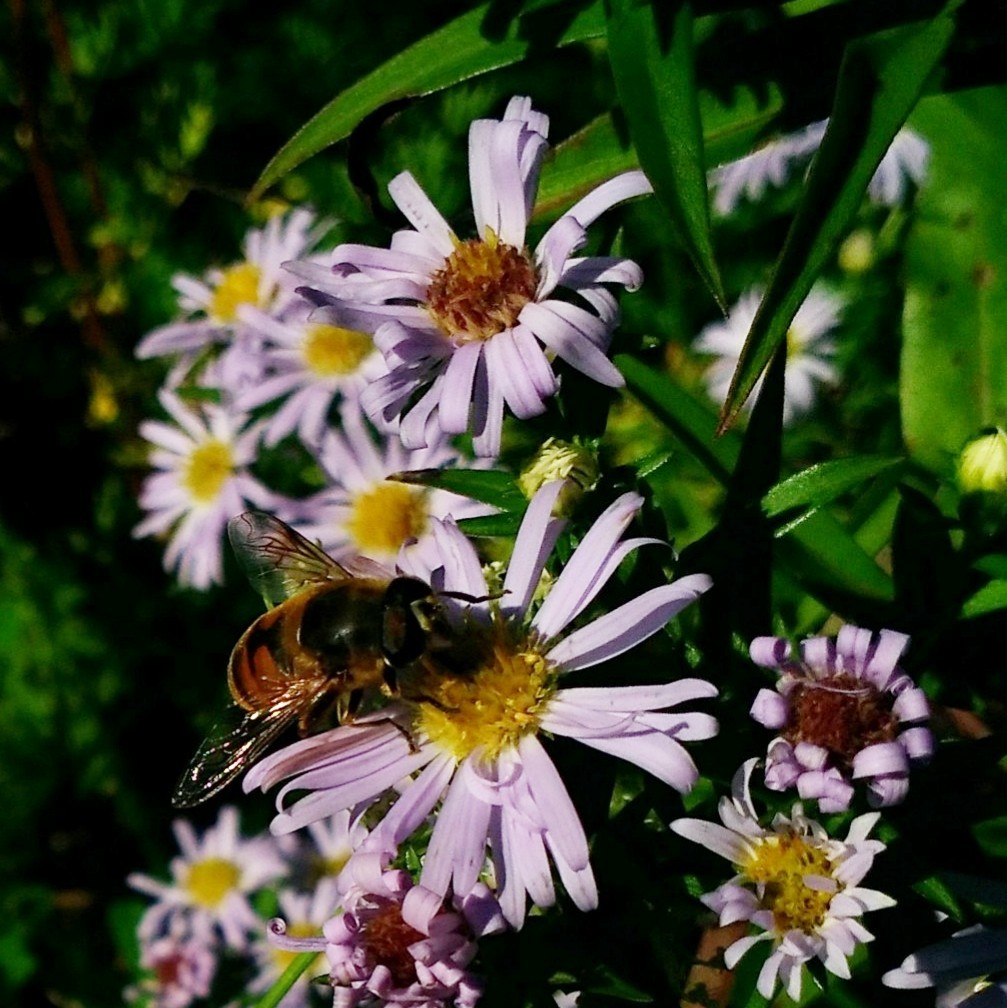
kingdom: Animalia
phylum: Arthropoda
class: Insecta
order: Diptera
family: Syrphidae
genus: Eristalis
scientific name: Eristalis tenax
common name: Drone fly
